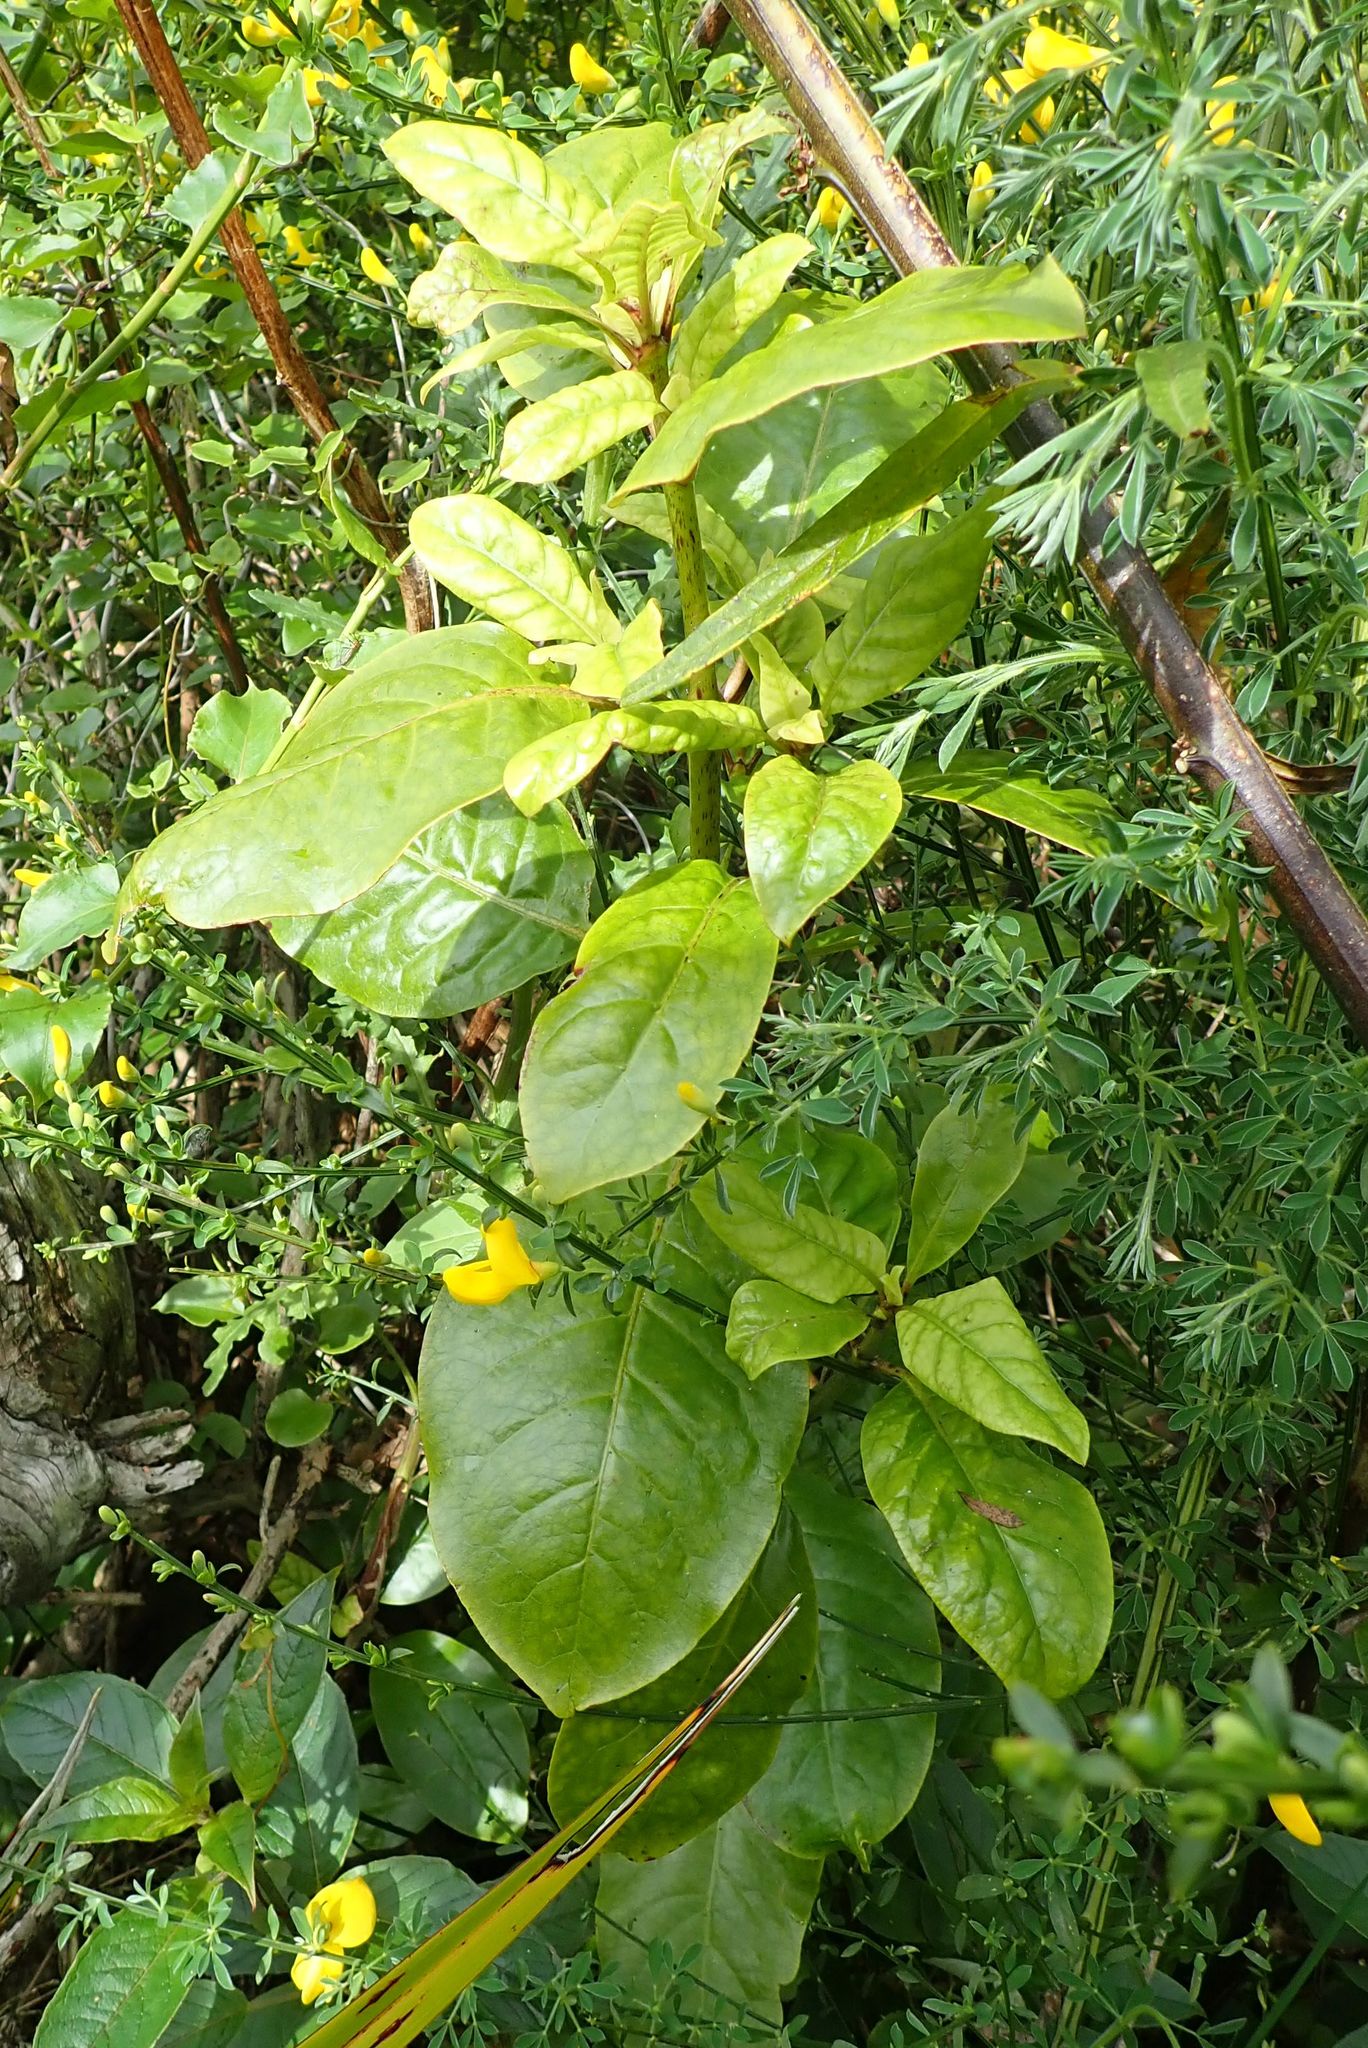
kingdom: Plantae
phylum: Tracheophyta
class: Magnoliopsida
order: Gentianales
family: Rubiaceae
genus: Coprosma
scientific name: Coprosma autumnalis
